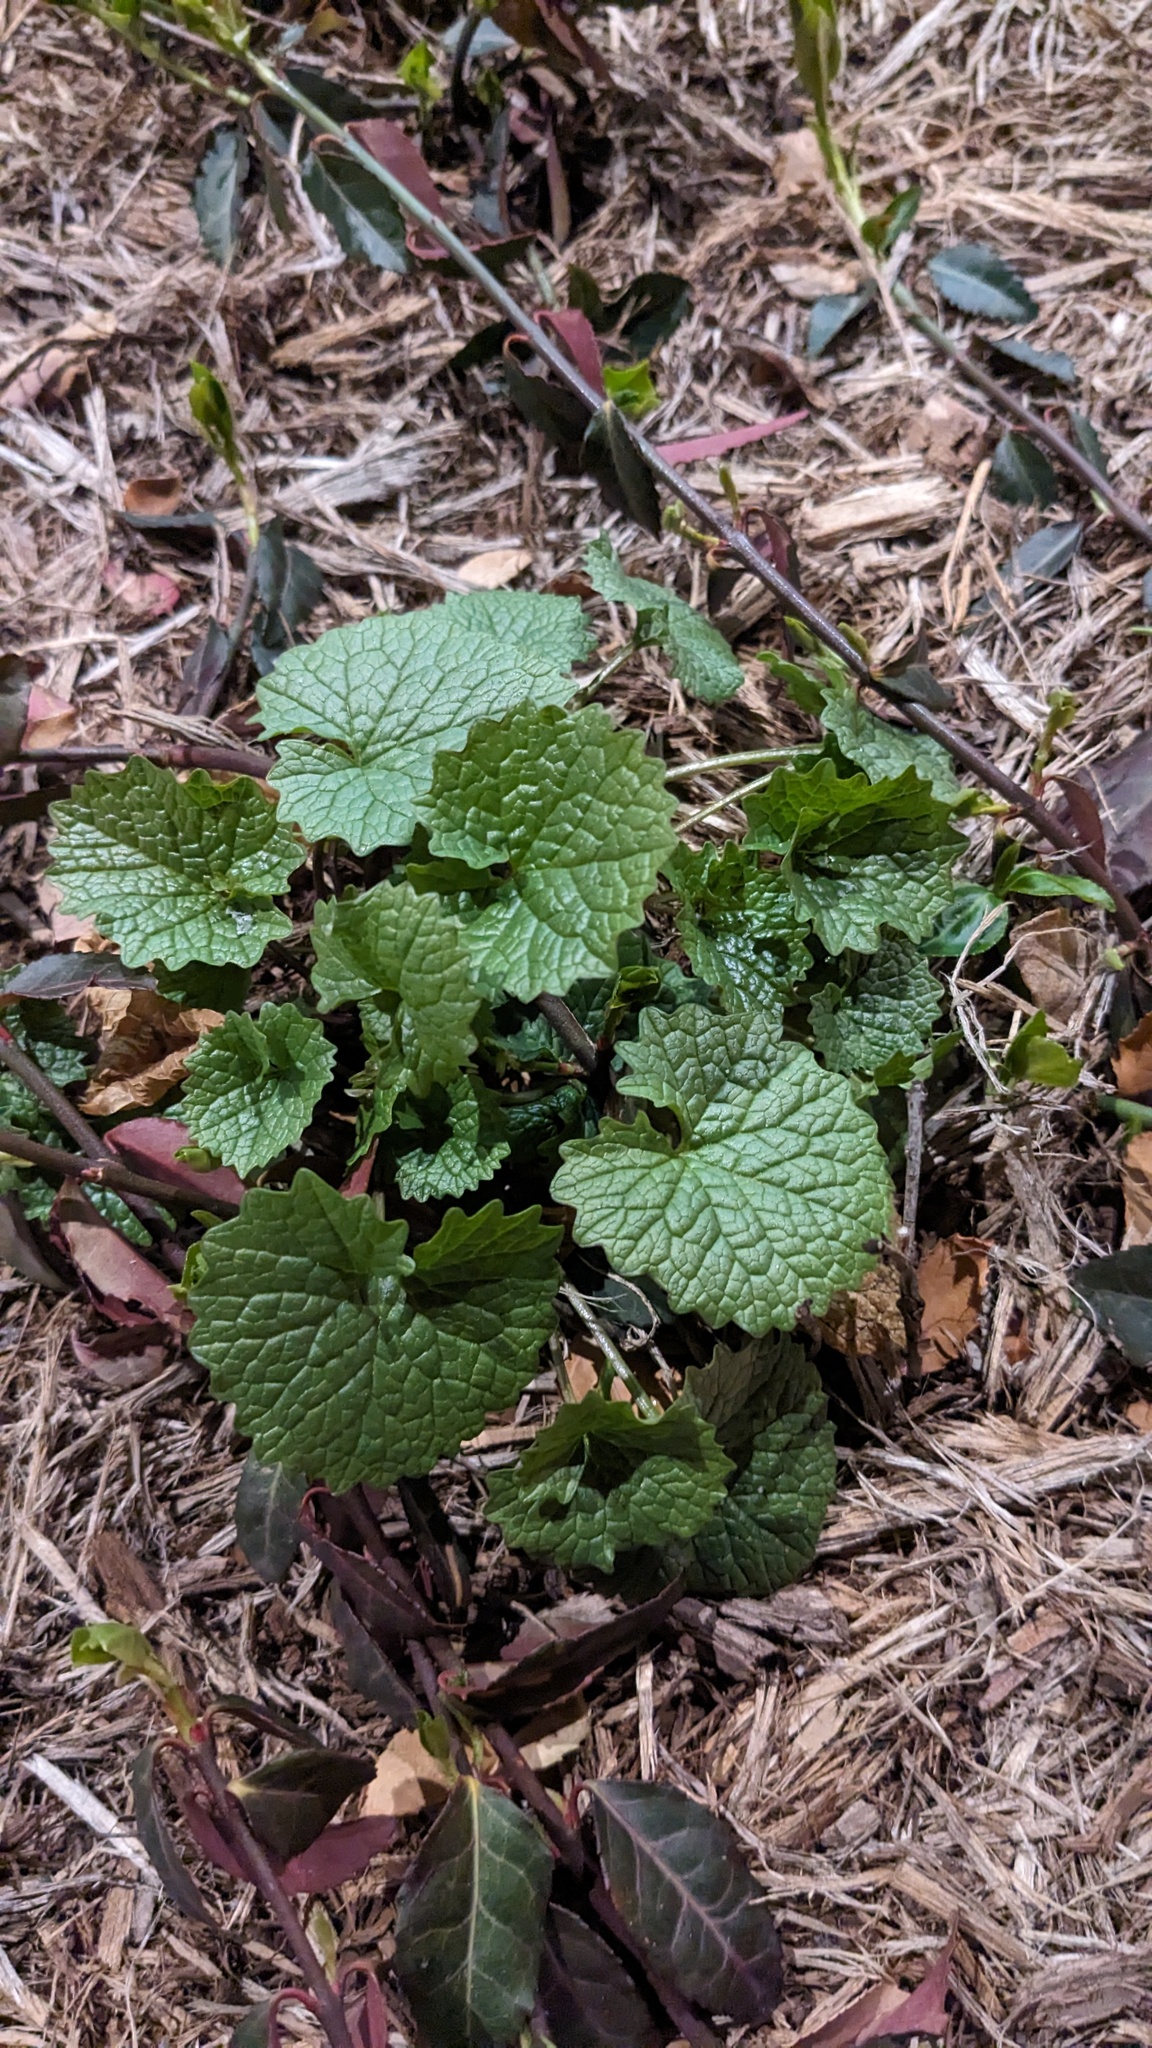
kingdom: Plantae
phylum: Tracheophyta
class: Magnoliopsida
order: Brassicales
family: Brassicaceae
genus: Alliaria
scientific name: Alliaria petiolata
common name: Garlic mustard
